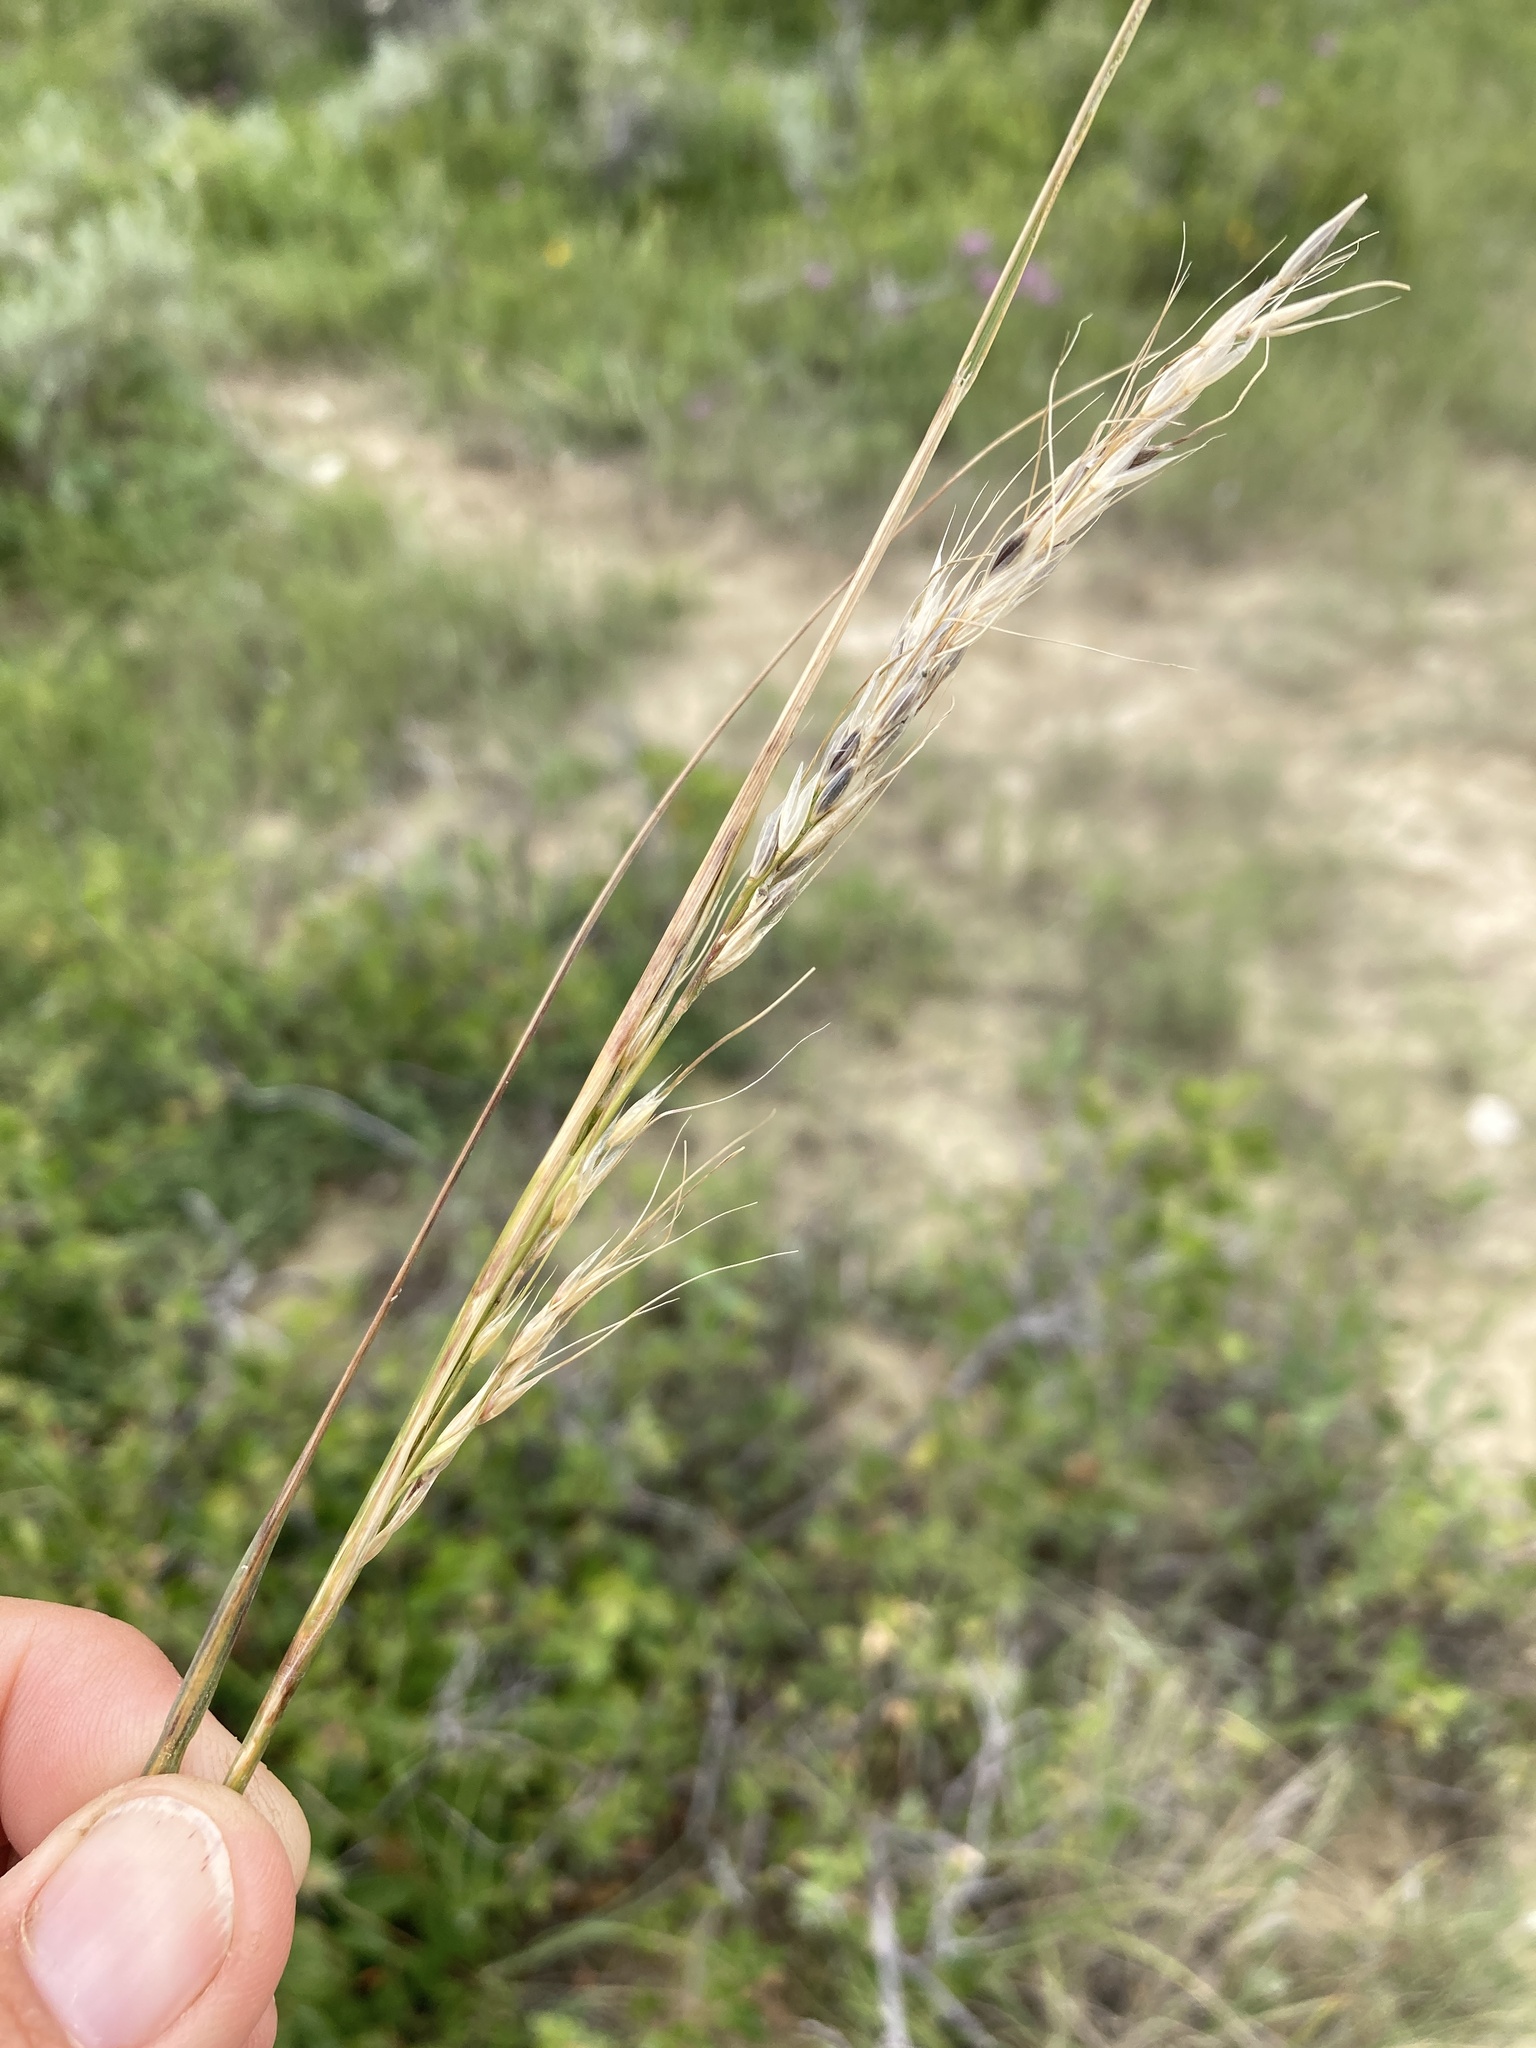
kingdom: Plantae
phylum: Tracheophyta
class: Liliopsida
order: Poales
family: Poaceae
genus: Nassella
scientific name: Nassella viridula
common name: Green needlegrass
